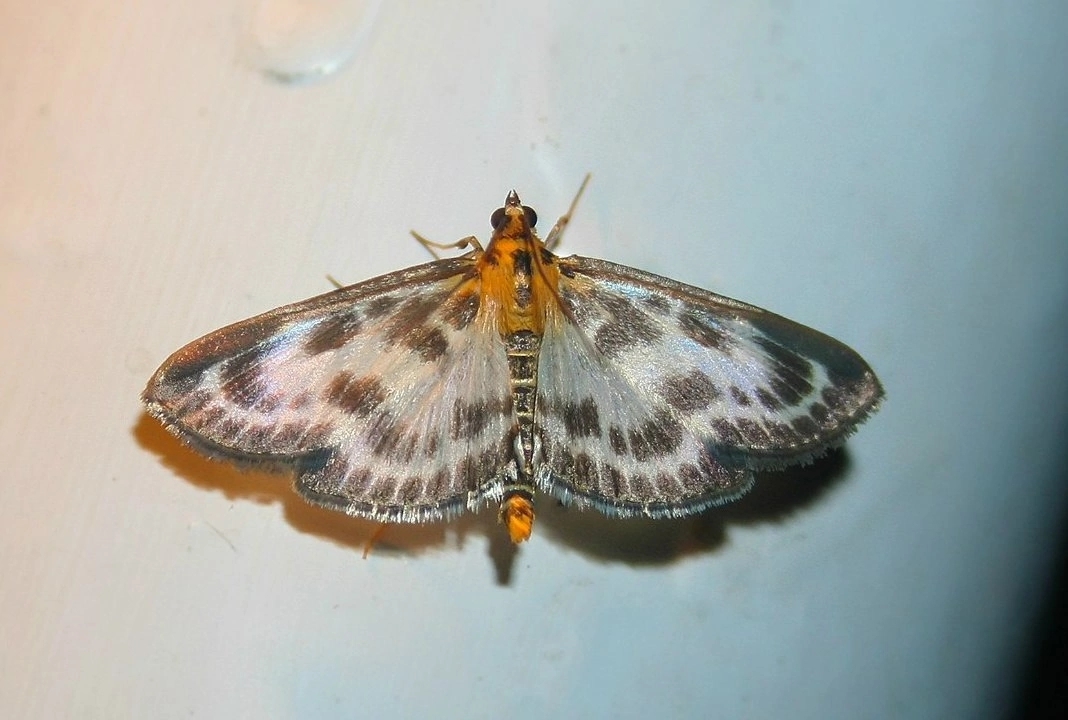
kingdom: Animalia
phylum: Arthropoda
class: Insecta
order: Lepidoptera
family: Crambidae
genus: Anania
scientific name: Anania hortulata
